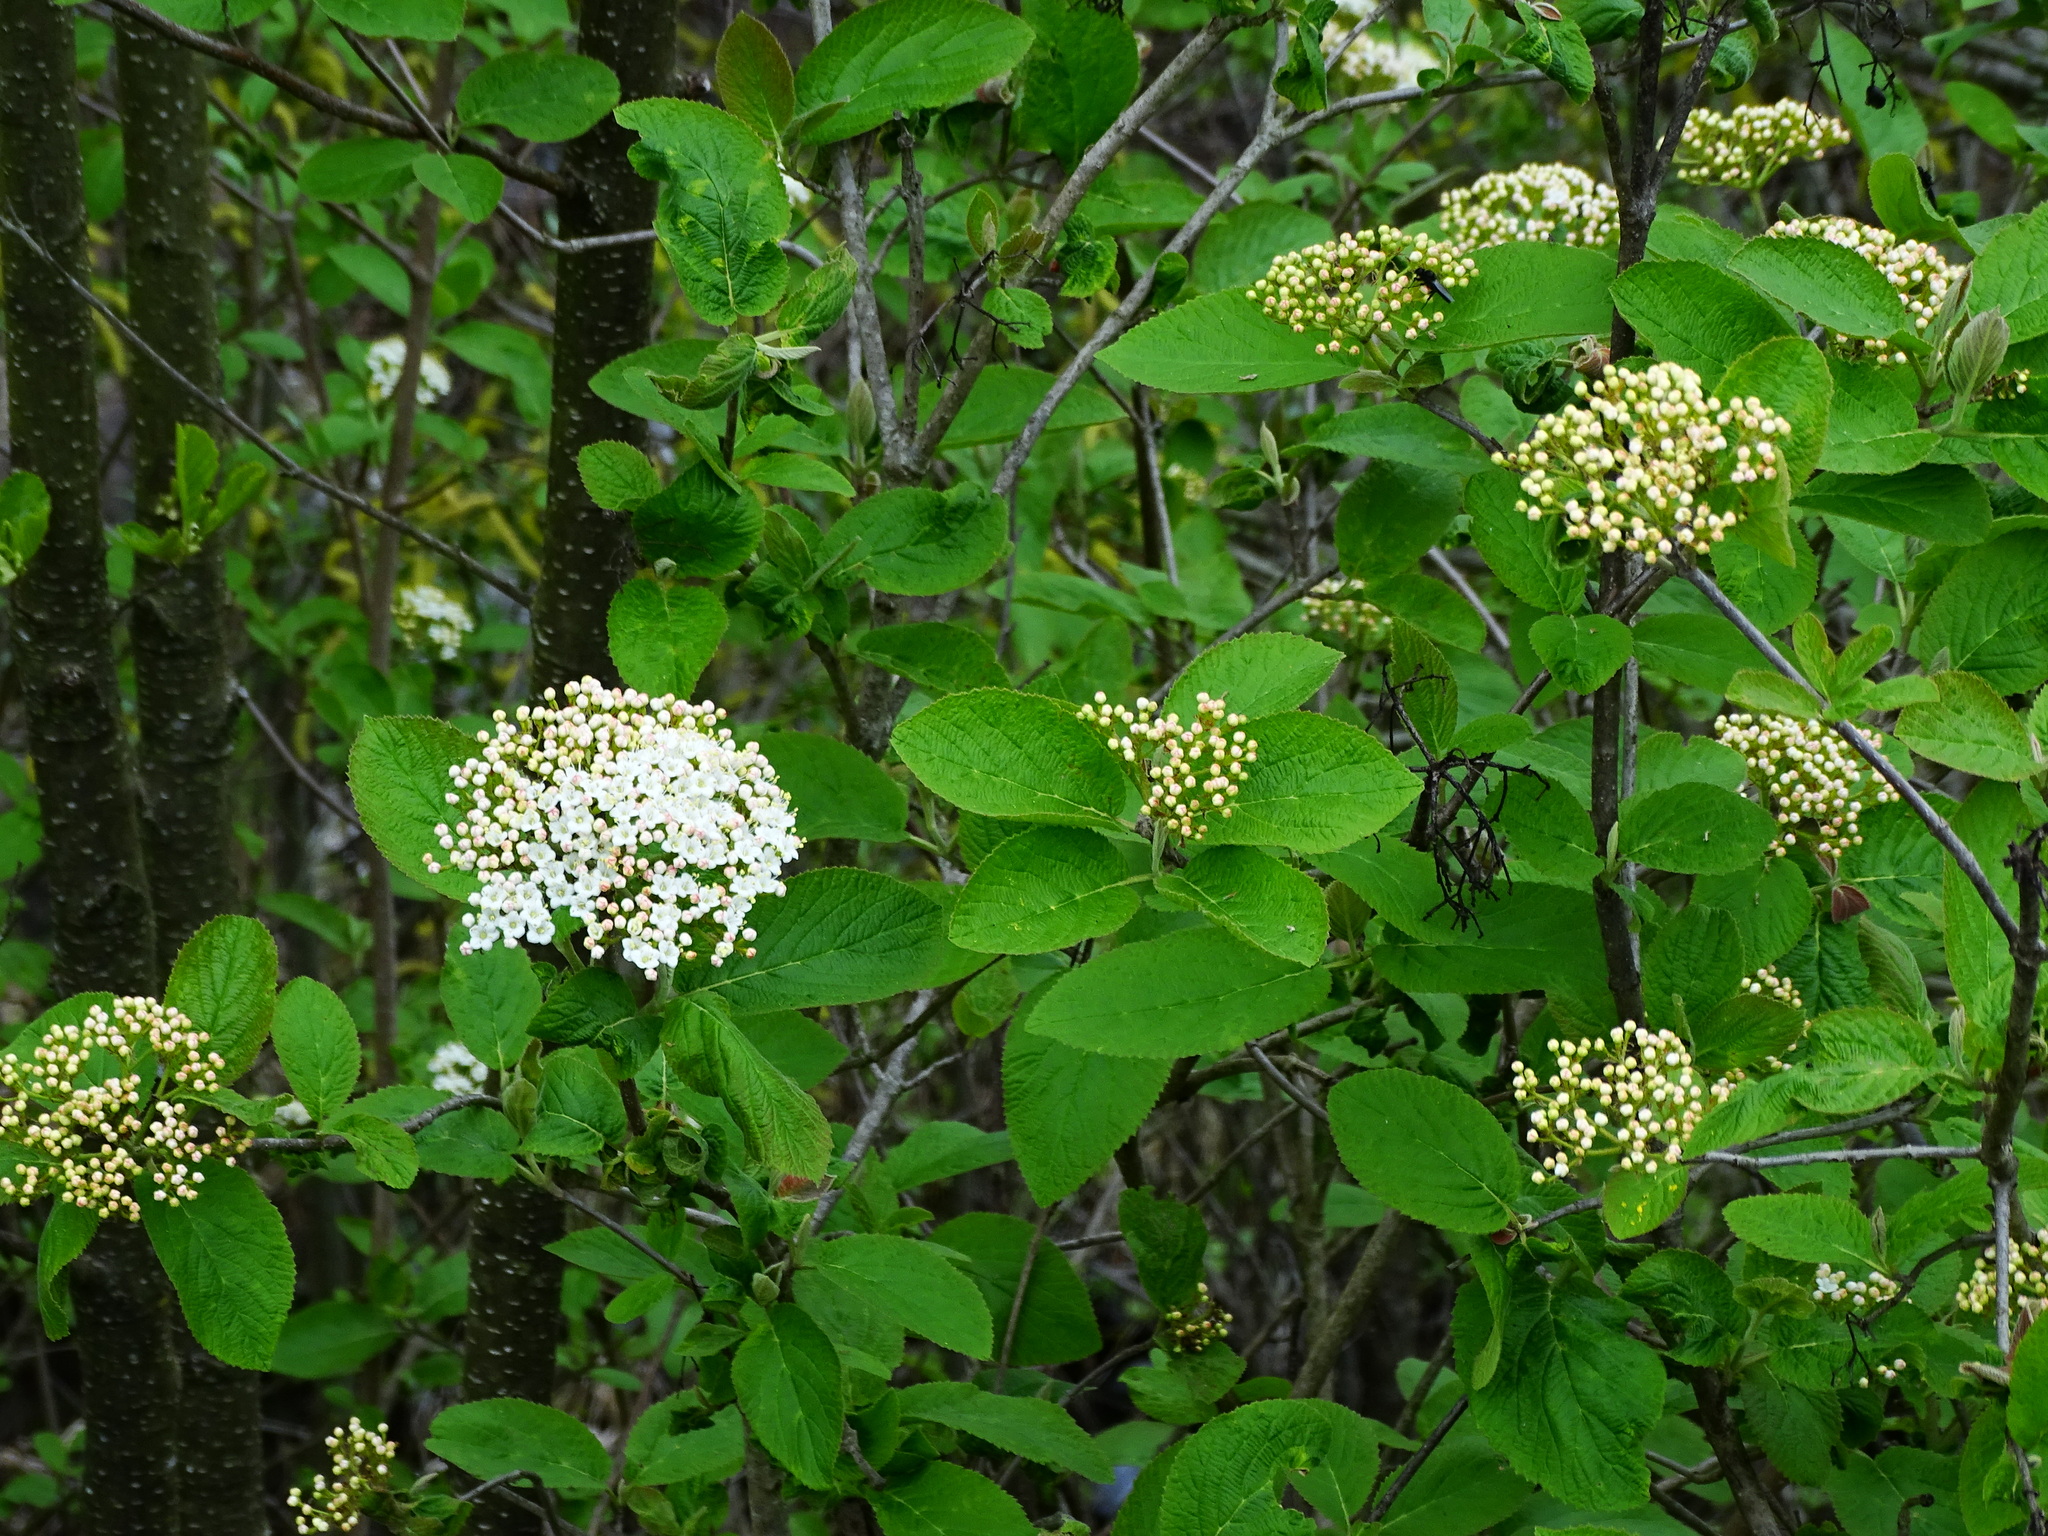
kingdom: Plantae
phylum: Tracheophyta
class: Magnoliopsida
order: Dipsacales
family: Viburnaceae
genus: Viburnum
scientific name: Viburnum lantana
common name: Wayfaring tree
